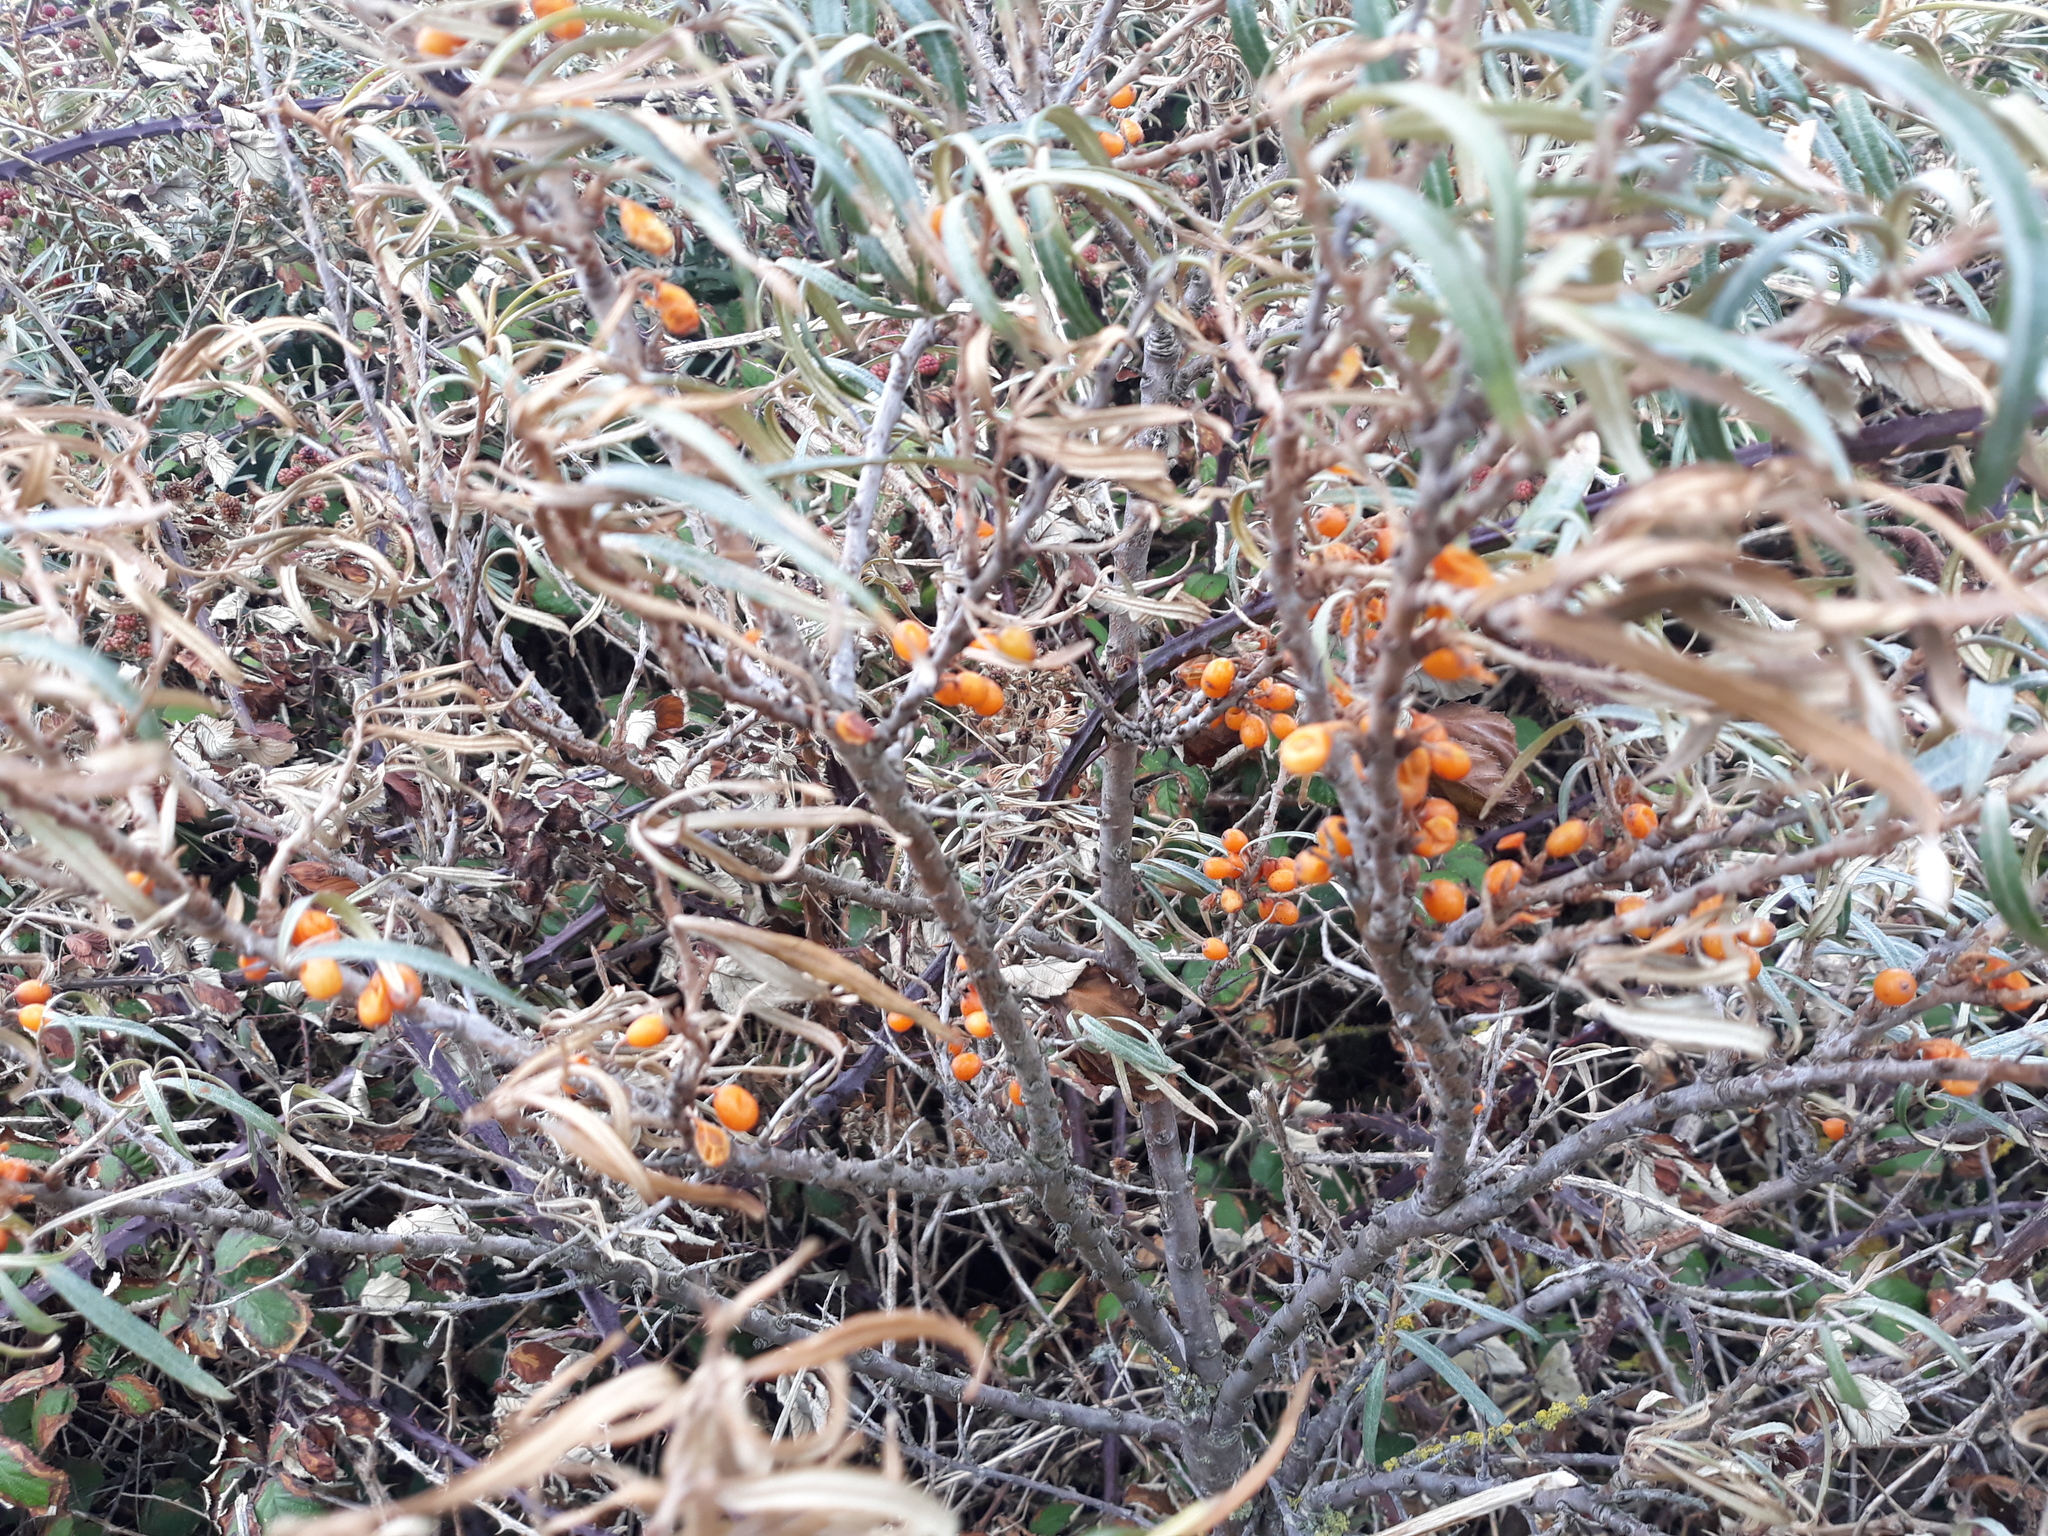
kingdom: Plantae
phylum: Tracheophyta
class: Magnoliopsida
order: Rosales
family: Elaeagnaceae
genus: Hippophae
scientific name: Hippophae rhamnoides
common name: Sea-buckthorn
